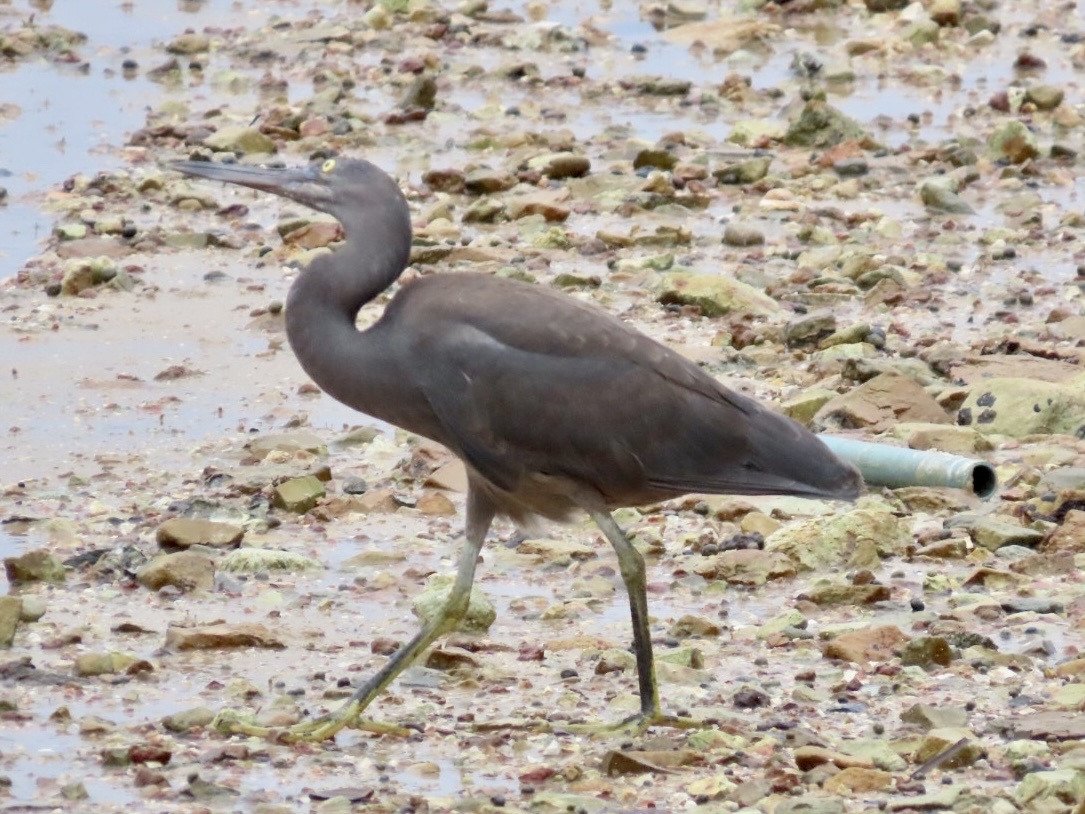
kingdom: Animalia
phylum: Chordata
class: Aves
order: Pelecaniformes
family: Ardeidae
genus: Egretta
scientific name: Egretta sacra
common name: Pacific reef heron
